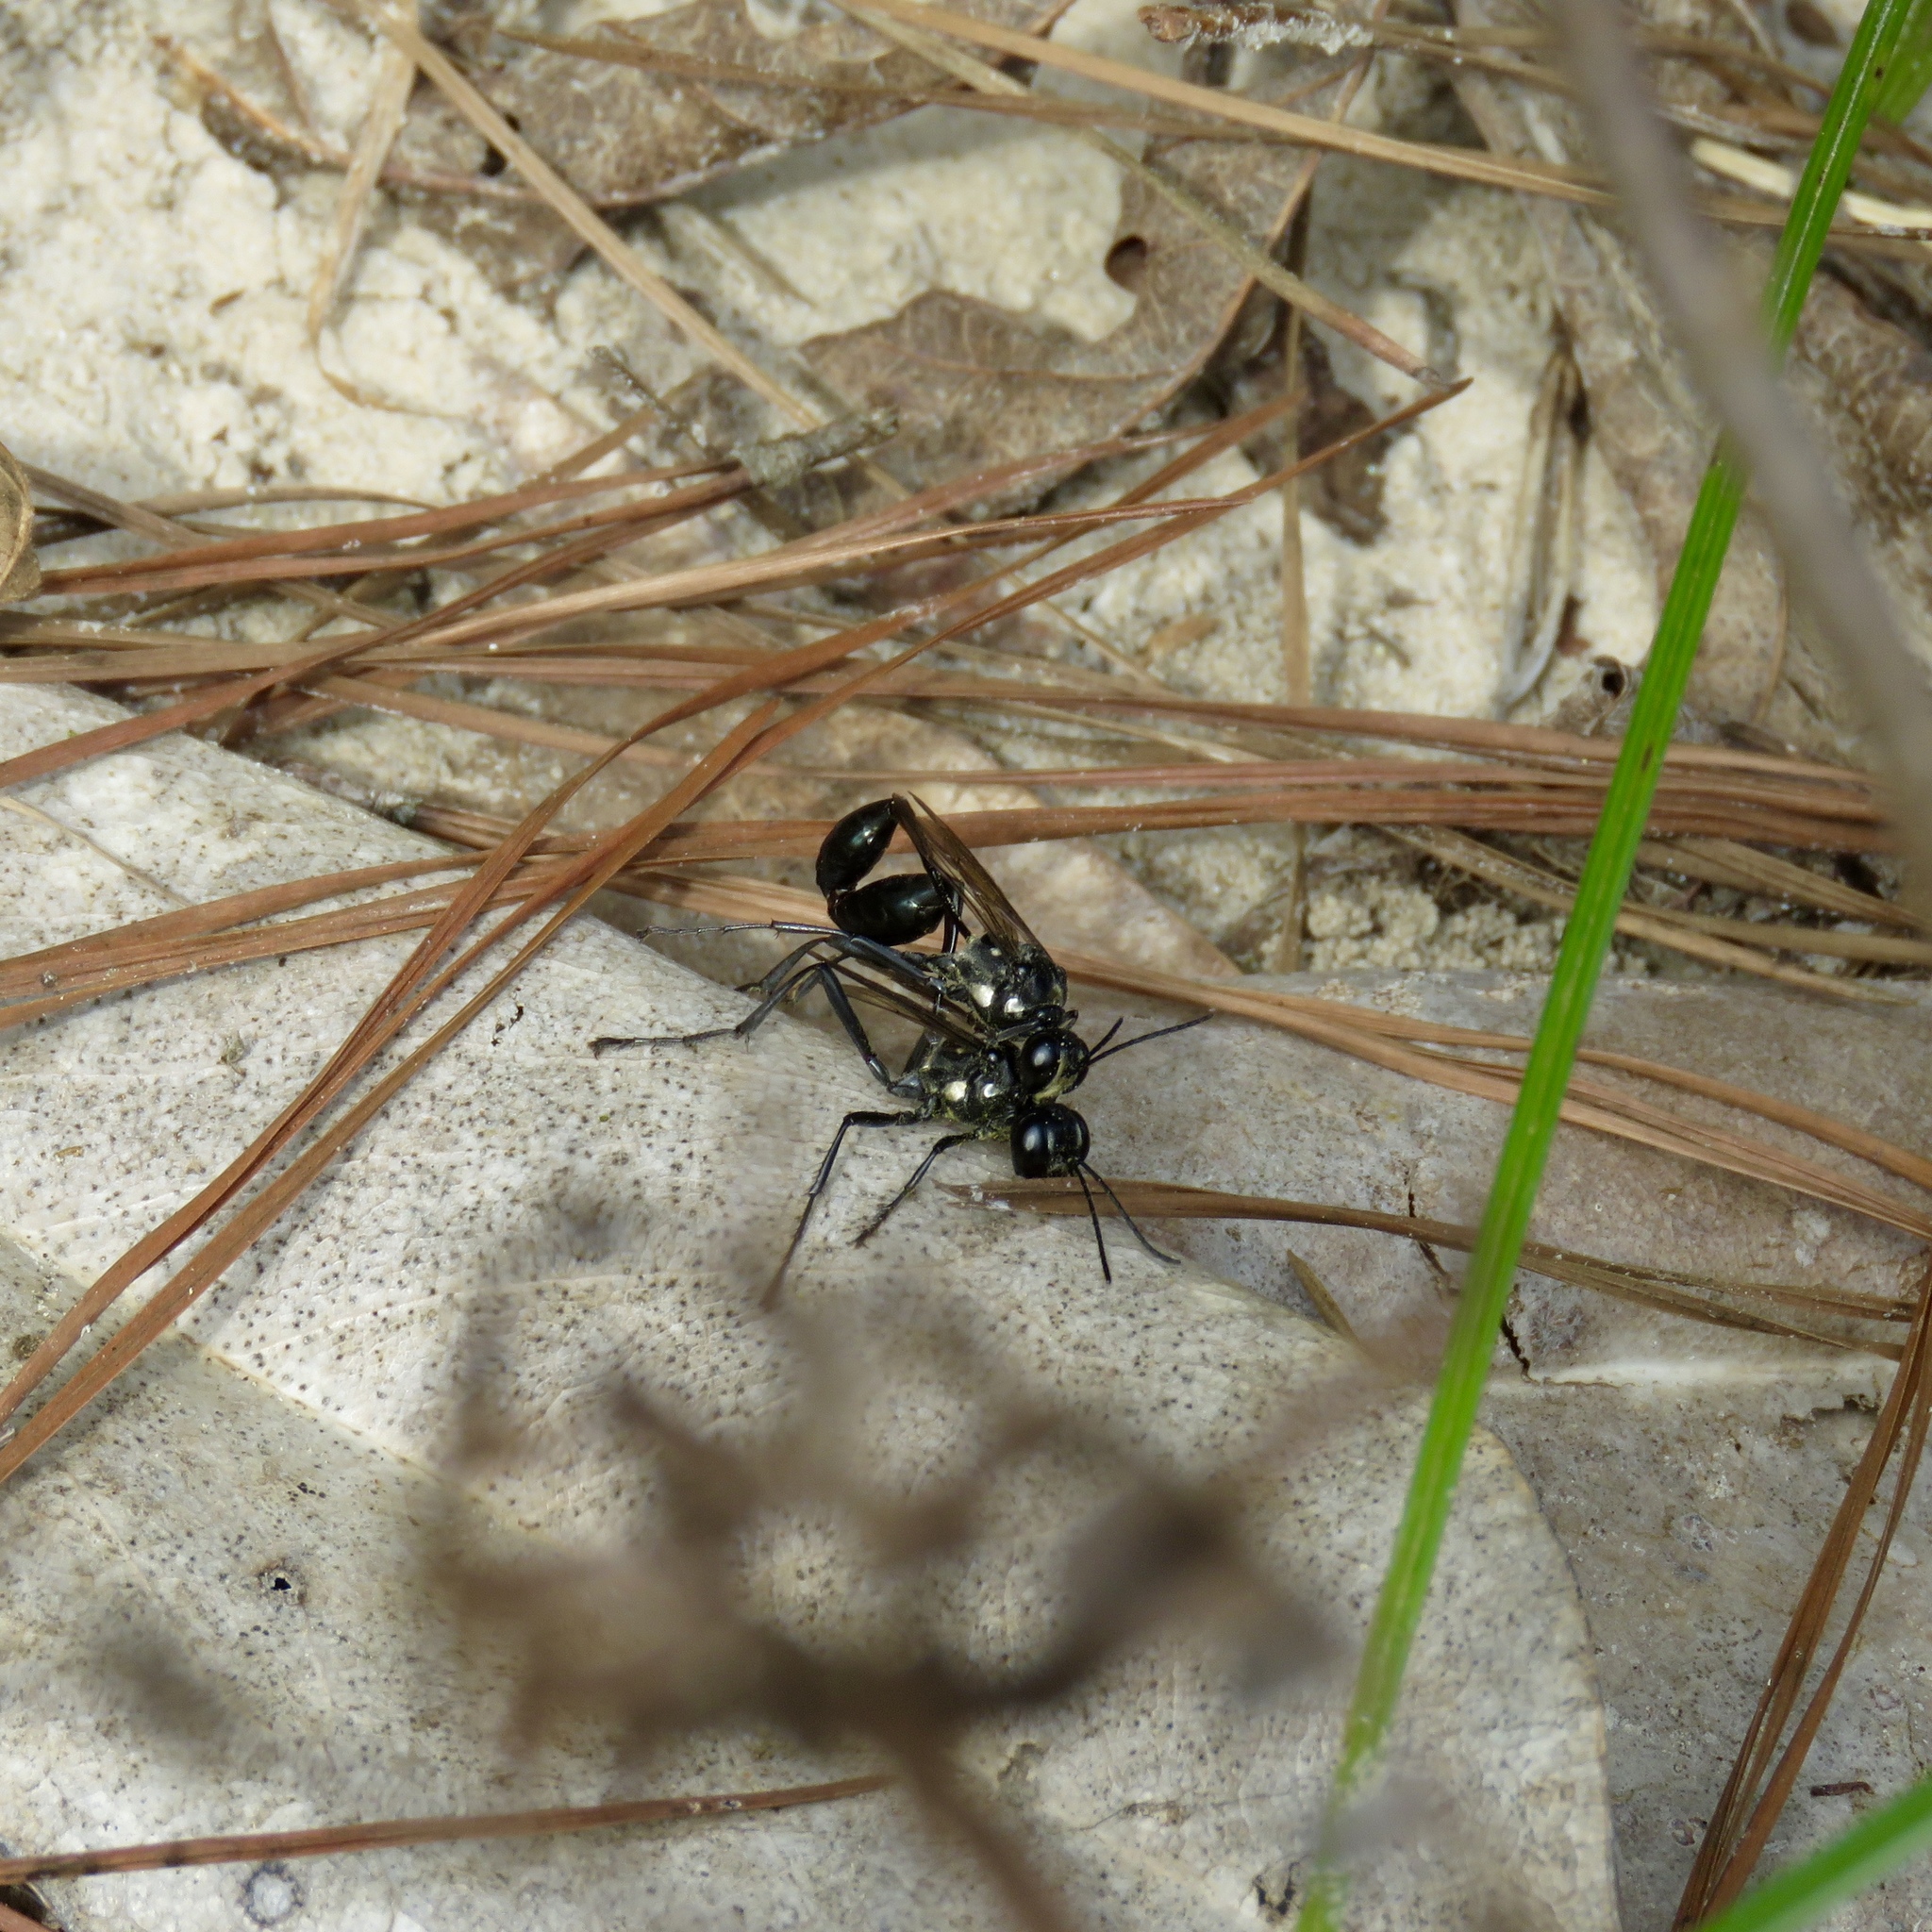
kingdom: Animalia
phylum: Arthropoda
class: Insecta
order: Hymenoptera
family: Sphecidae
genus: Eremnophila
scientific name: Eremnophila aureonotata
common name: Gold-marked thread-waisted wasp
